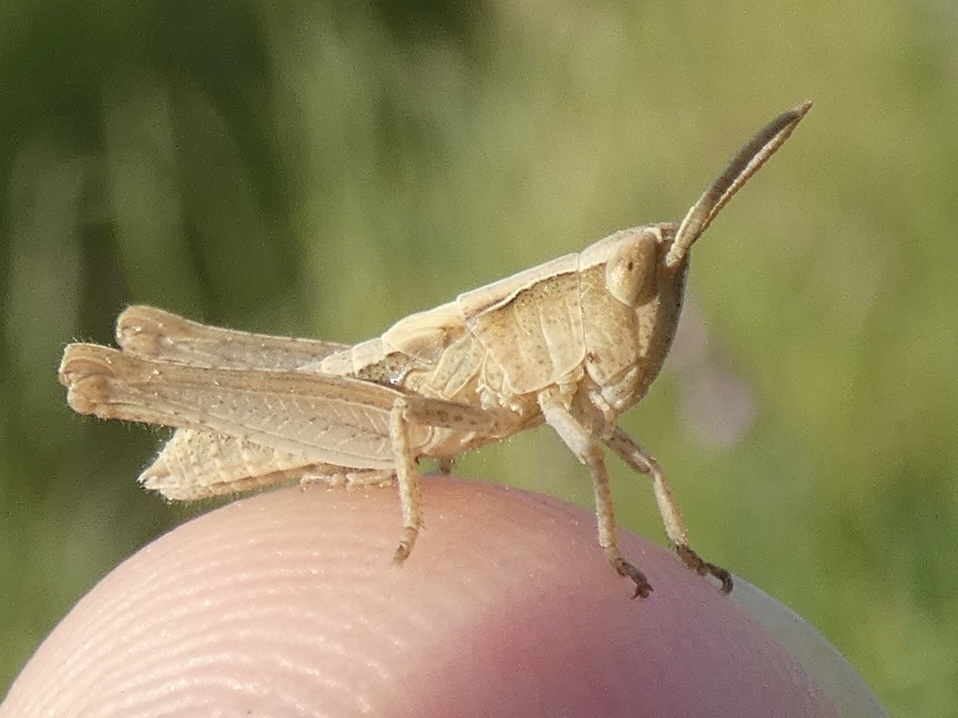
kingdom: Animalia
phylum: Arthropoda
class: Insecta
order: Orthoptera
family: Acrididae
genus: Chorthippus
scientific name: Chorthippus brunneus
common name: Field grasshopper
